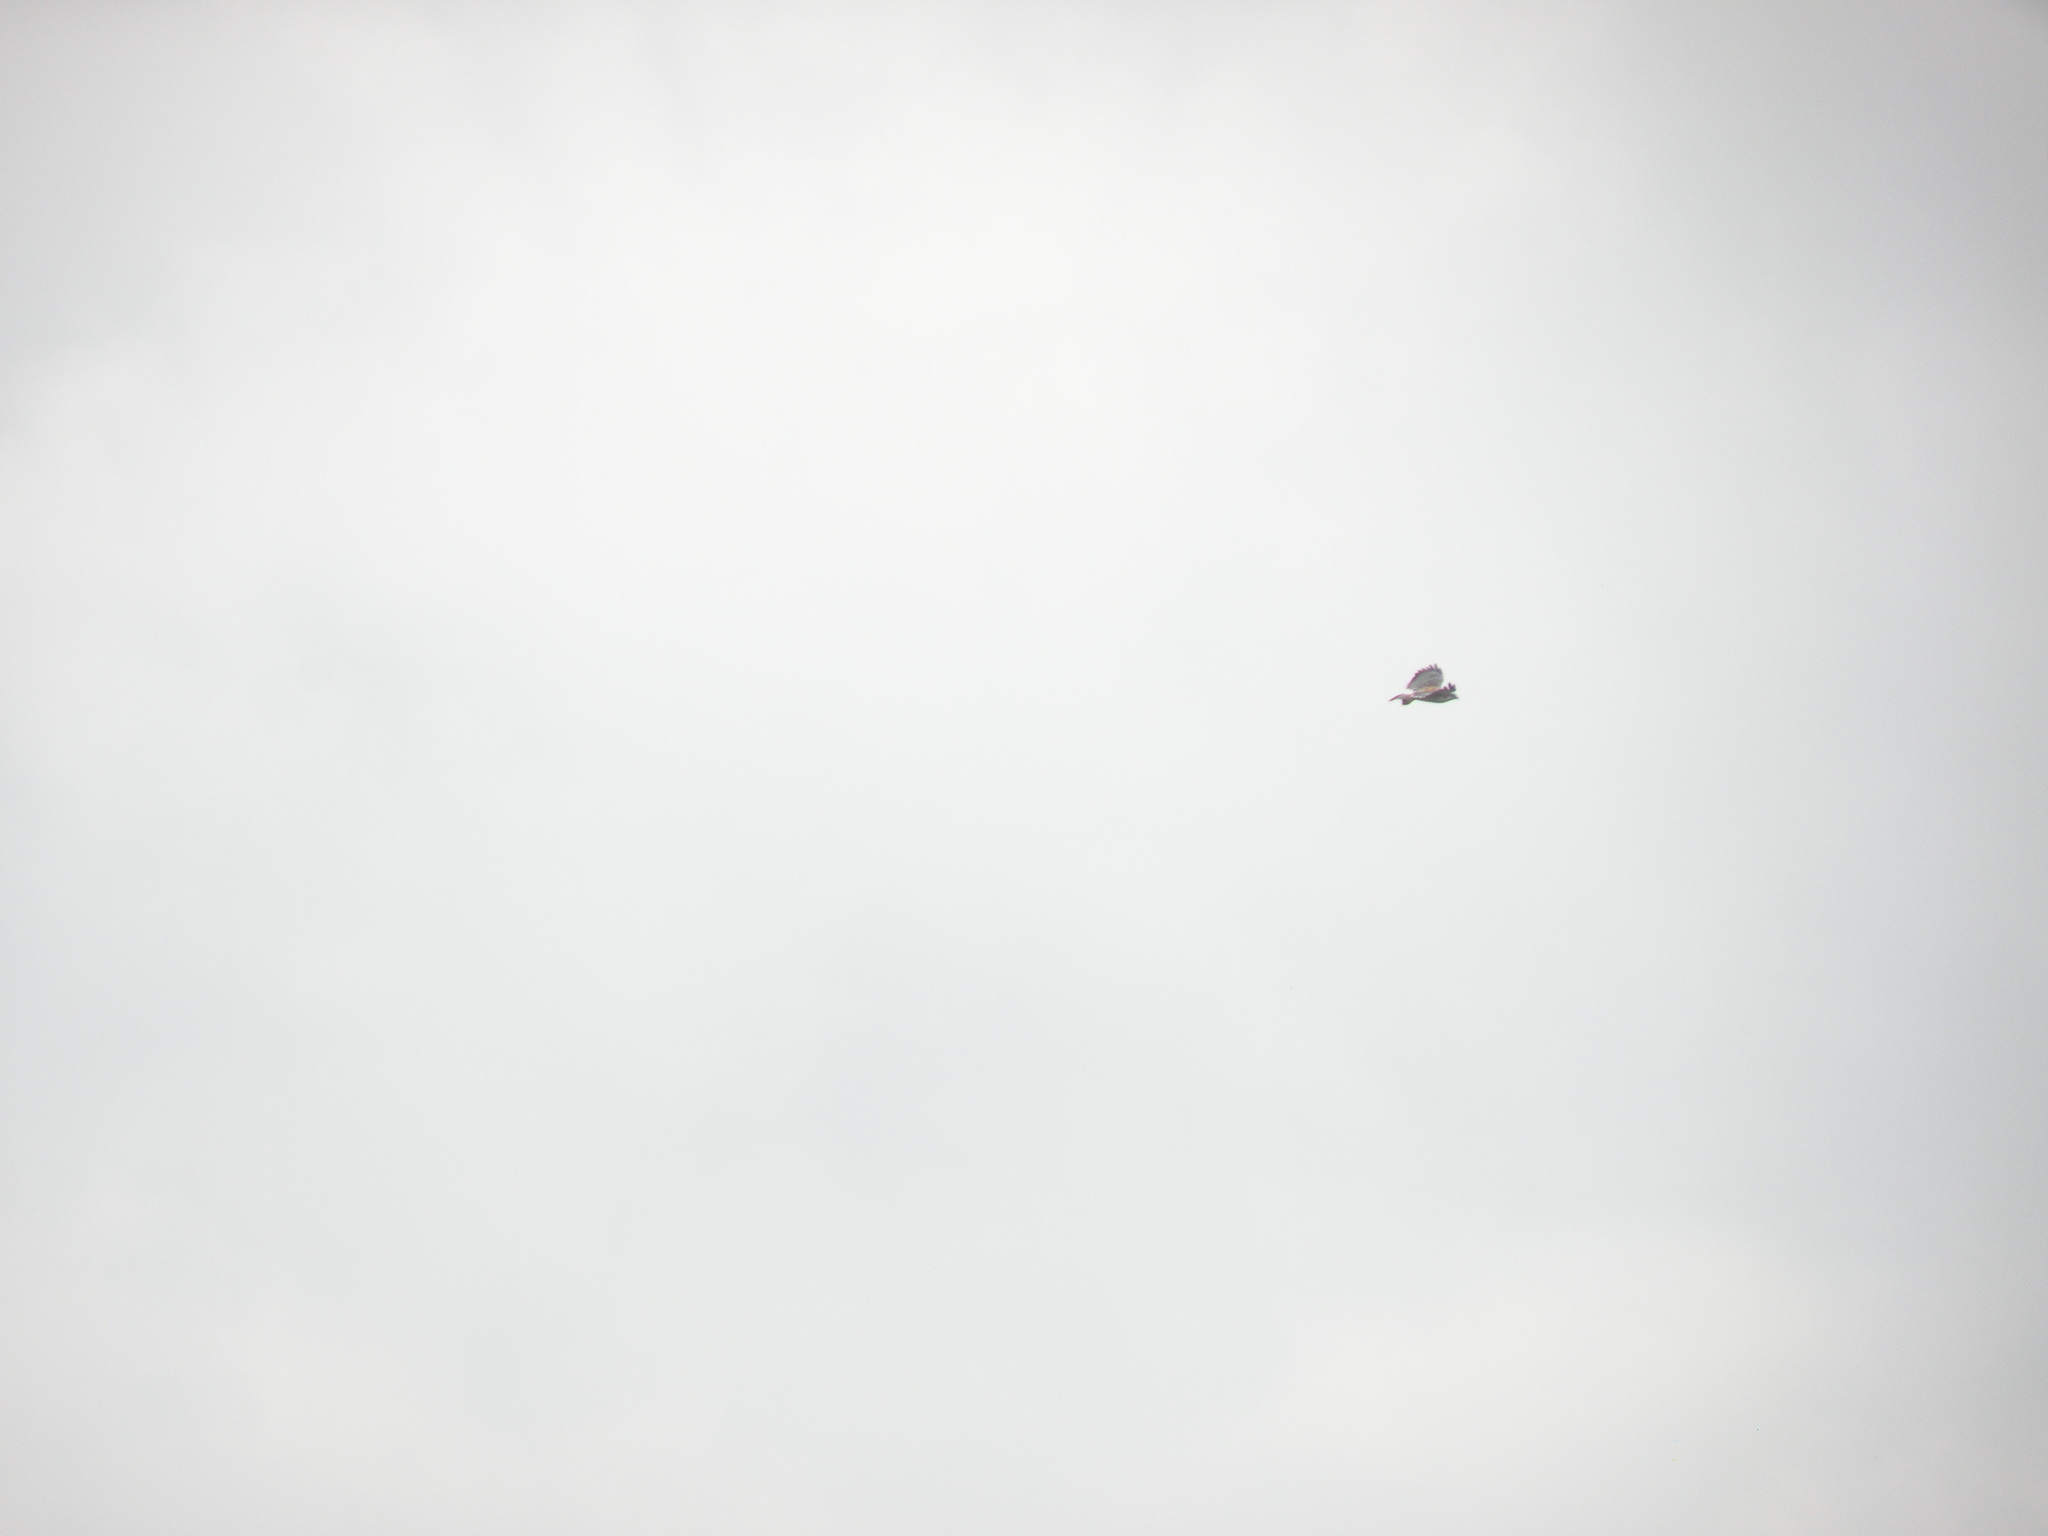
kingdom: Animalia
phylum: Chordata
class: Aves
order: Accipitriformes
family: Accipitridae
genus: Buteo
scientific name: Buteo polyosoma
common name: Variable hawk
